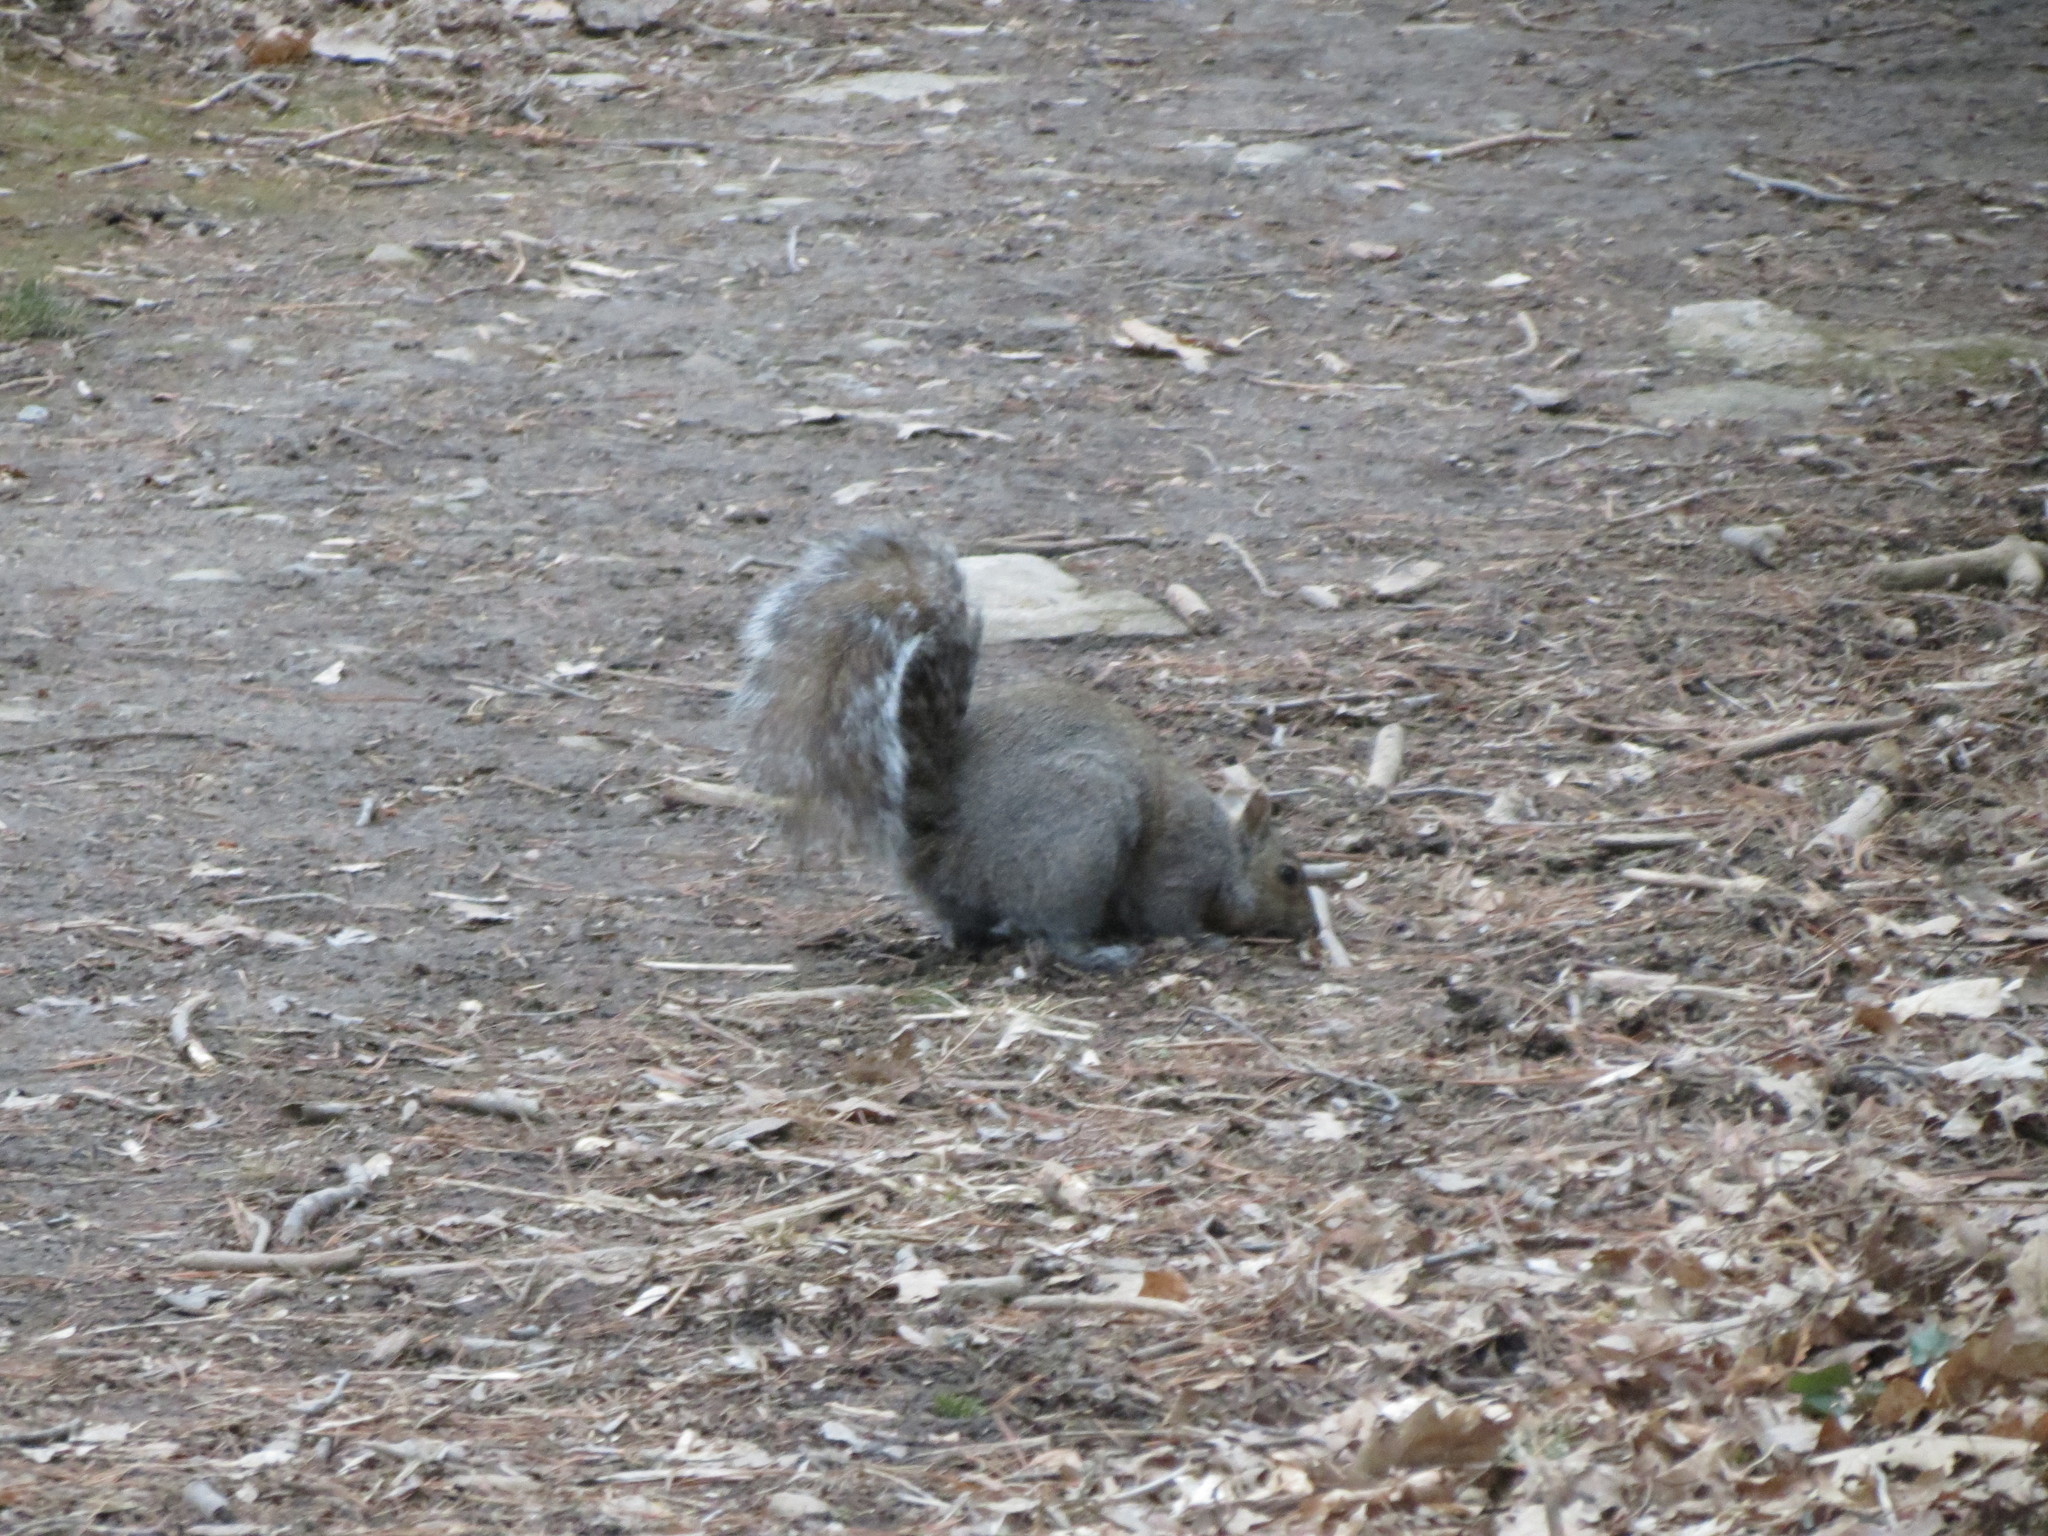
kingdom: Animalia
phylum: Chordata
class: Mammalia
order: Rodentia
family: Sciuridae
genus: Sciurus
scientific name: Sciurus carolinensis
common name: Eastern gray squirrel
